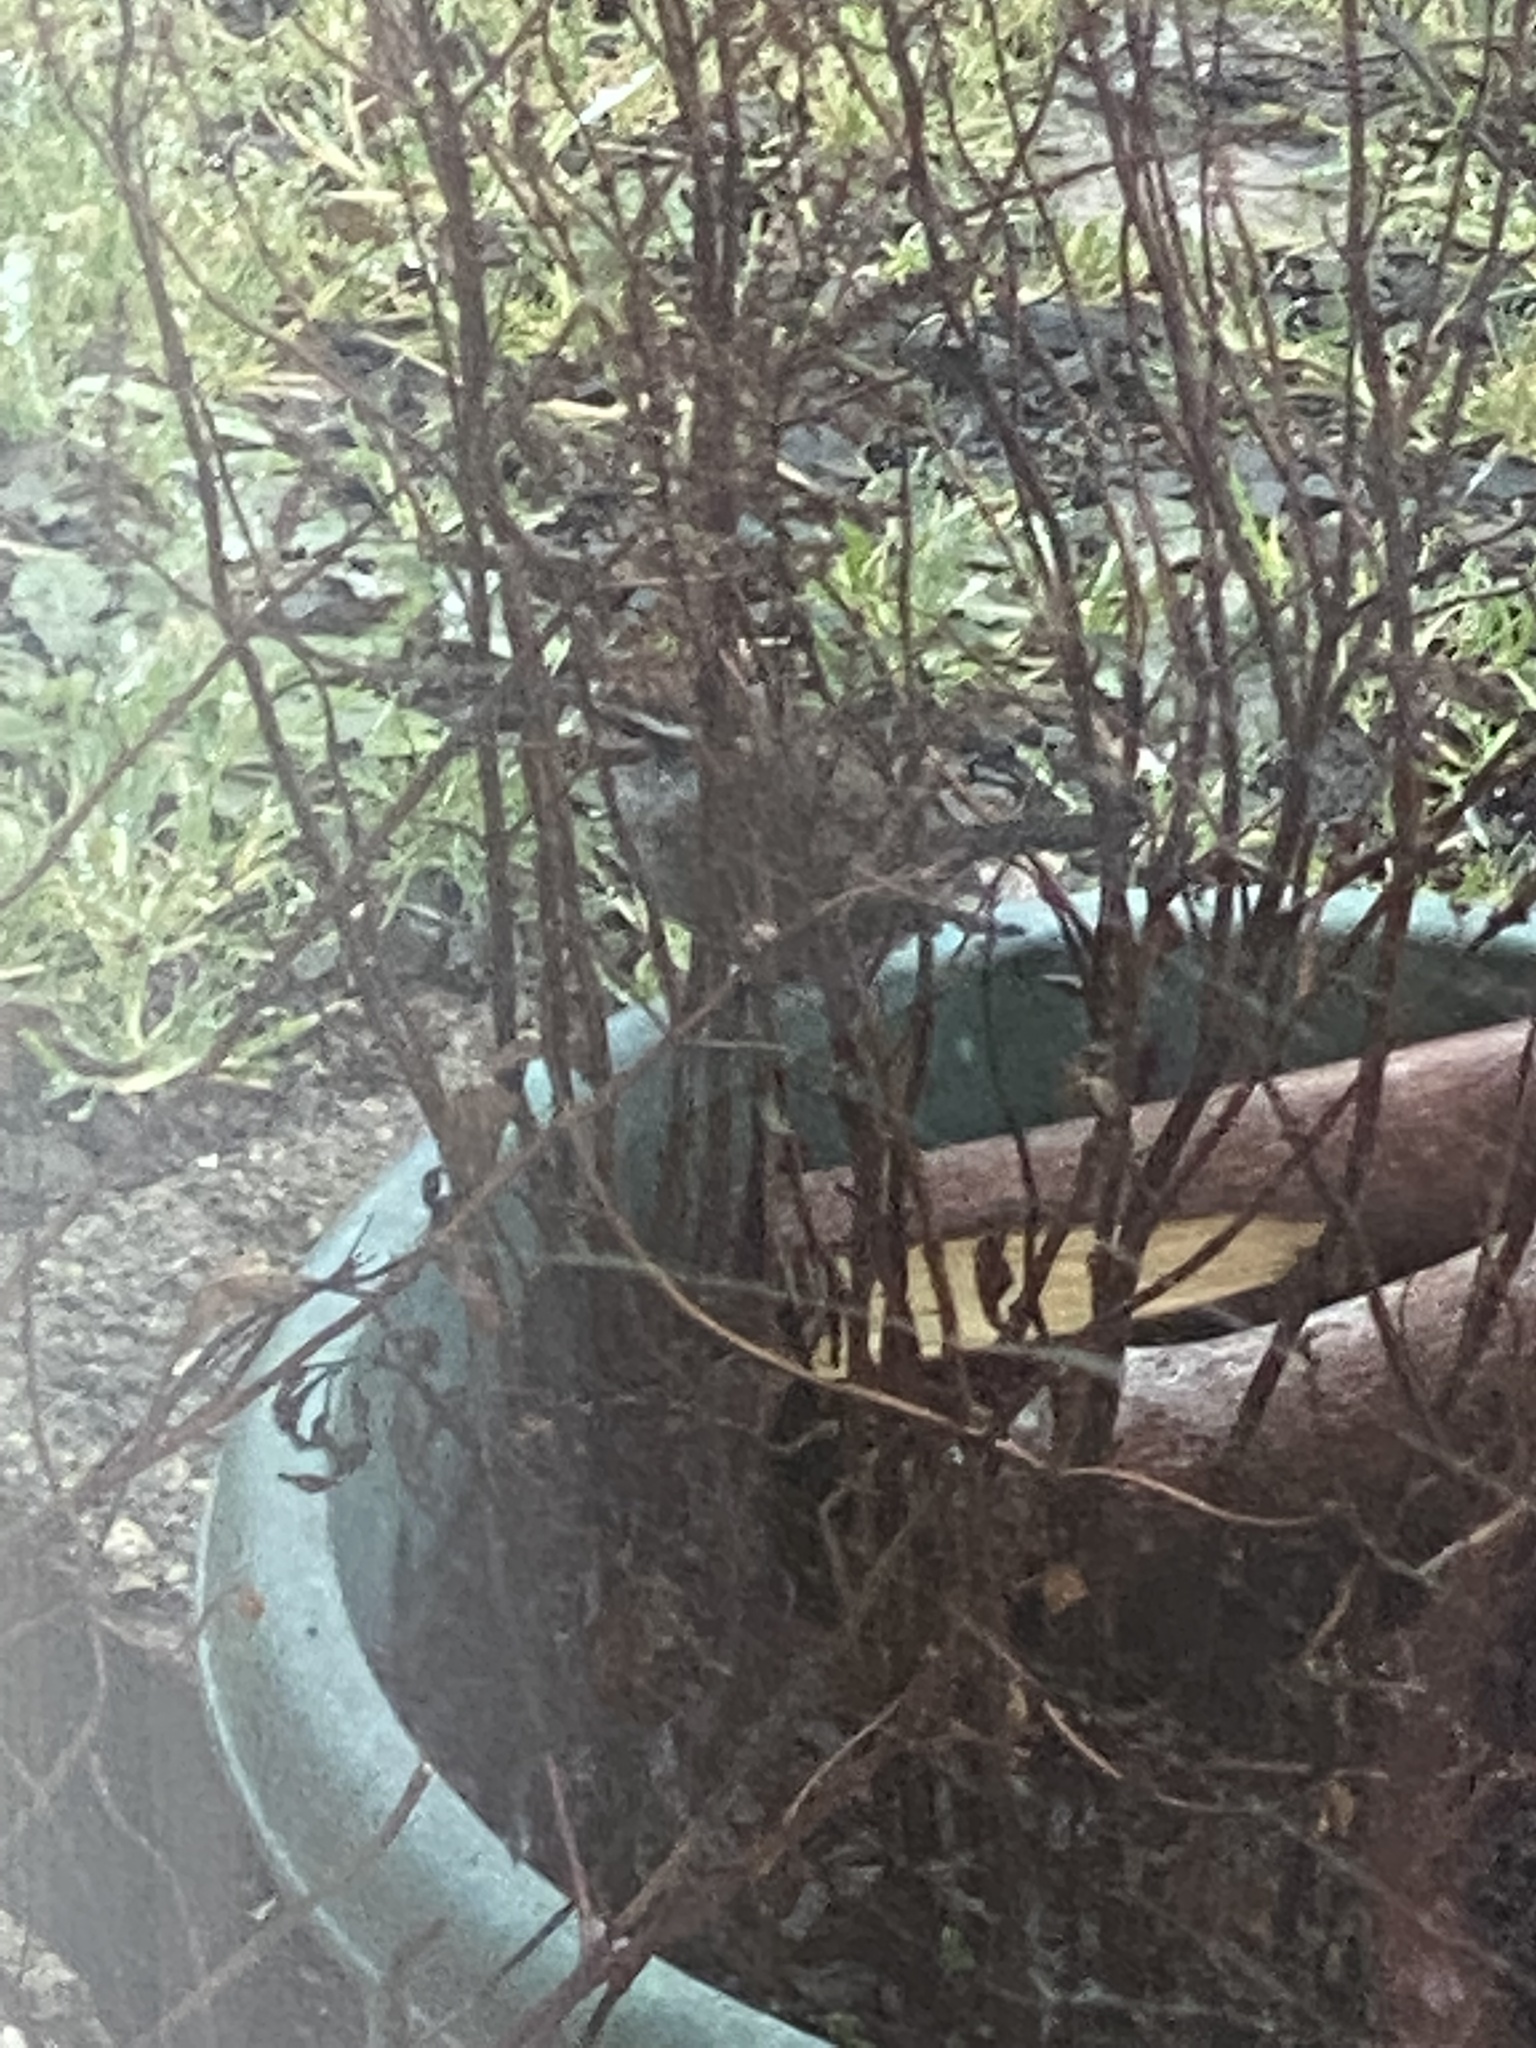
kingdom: Animalia
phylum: Chordata
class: Aves
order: Passeriformes
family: Troglodytidae
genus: Thryomanes
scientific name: Thryomanes bewickii
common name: Bewick's wren
